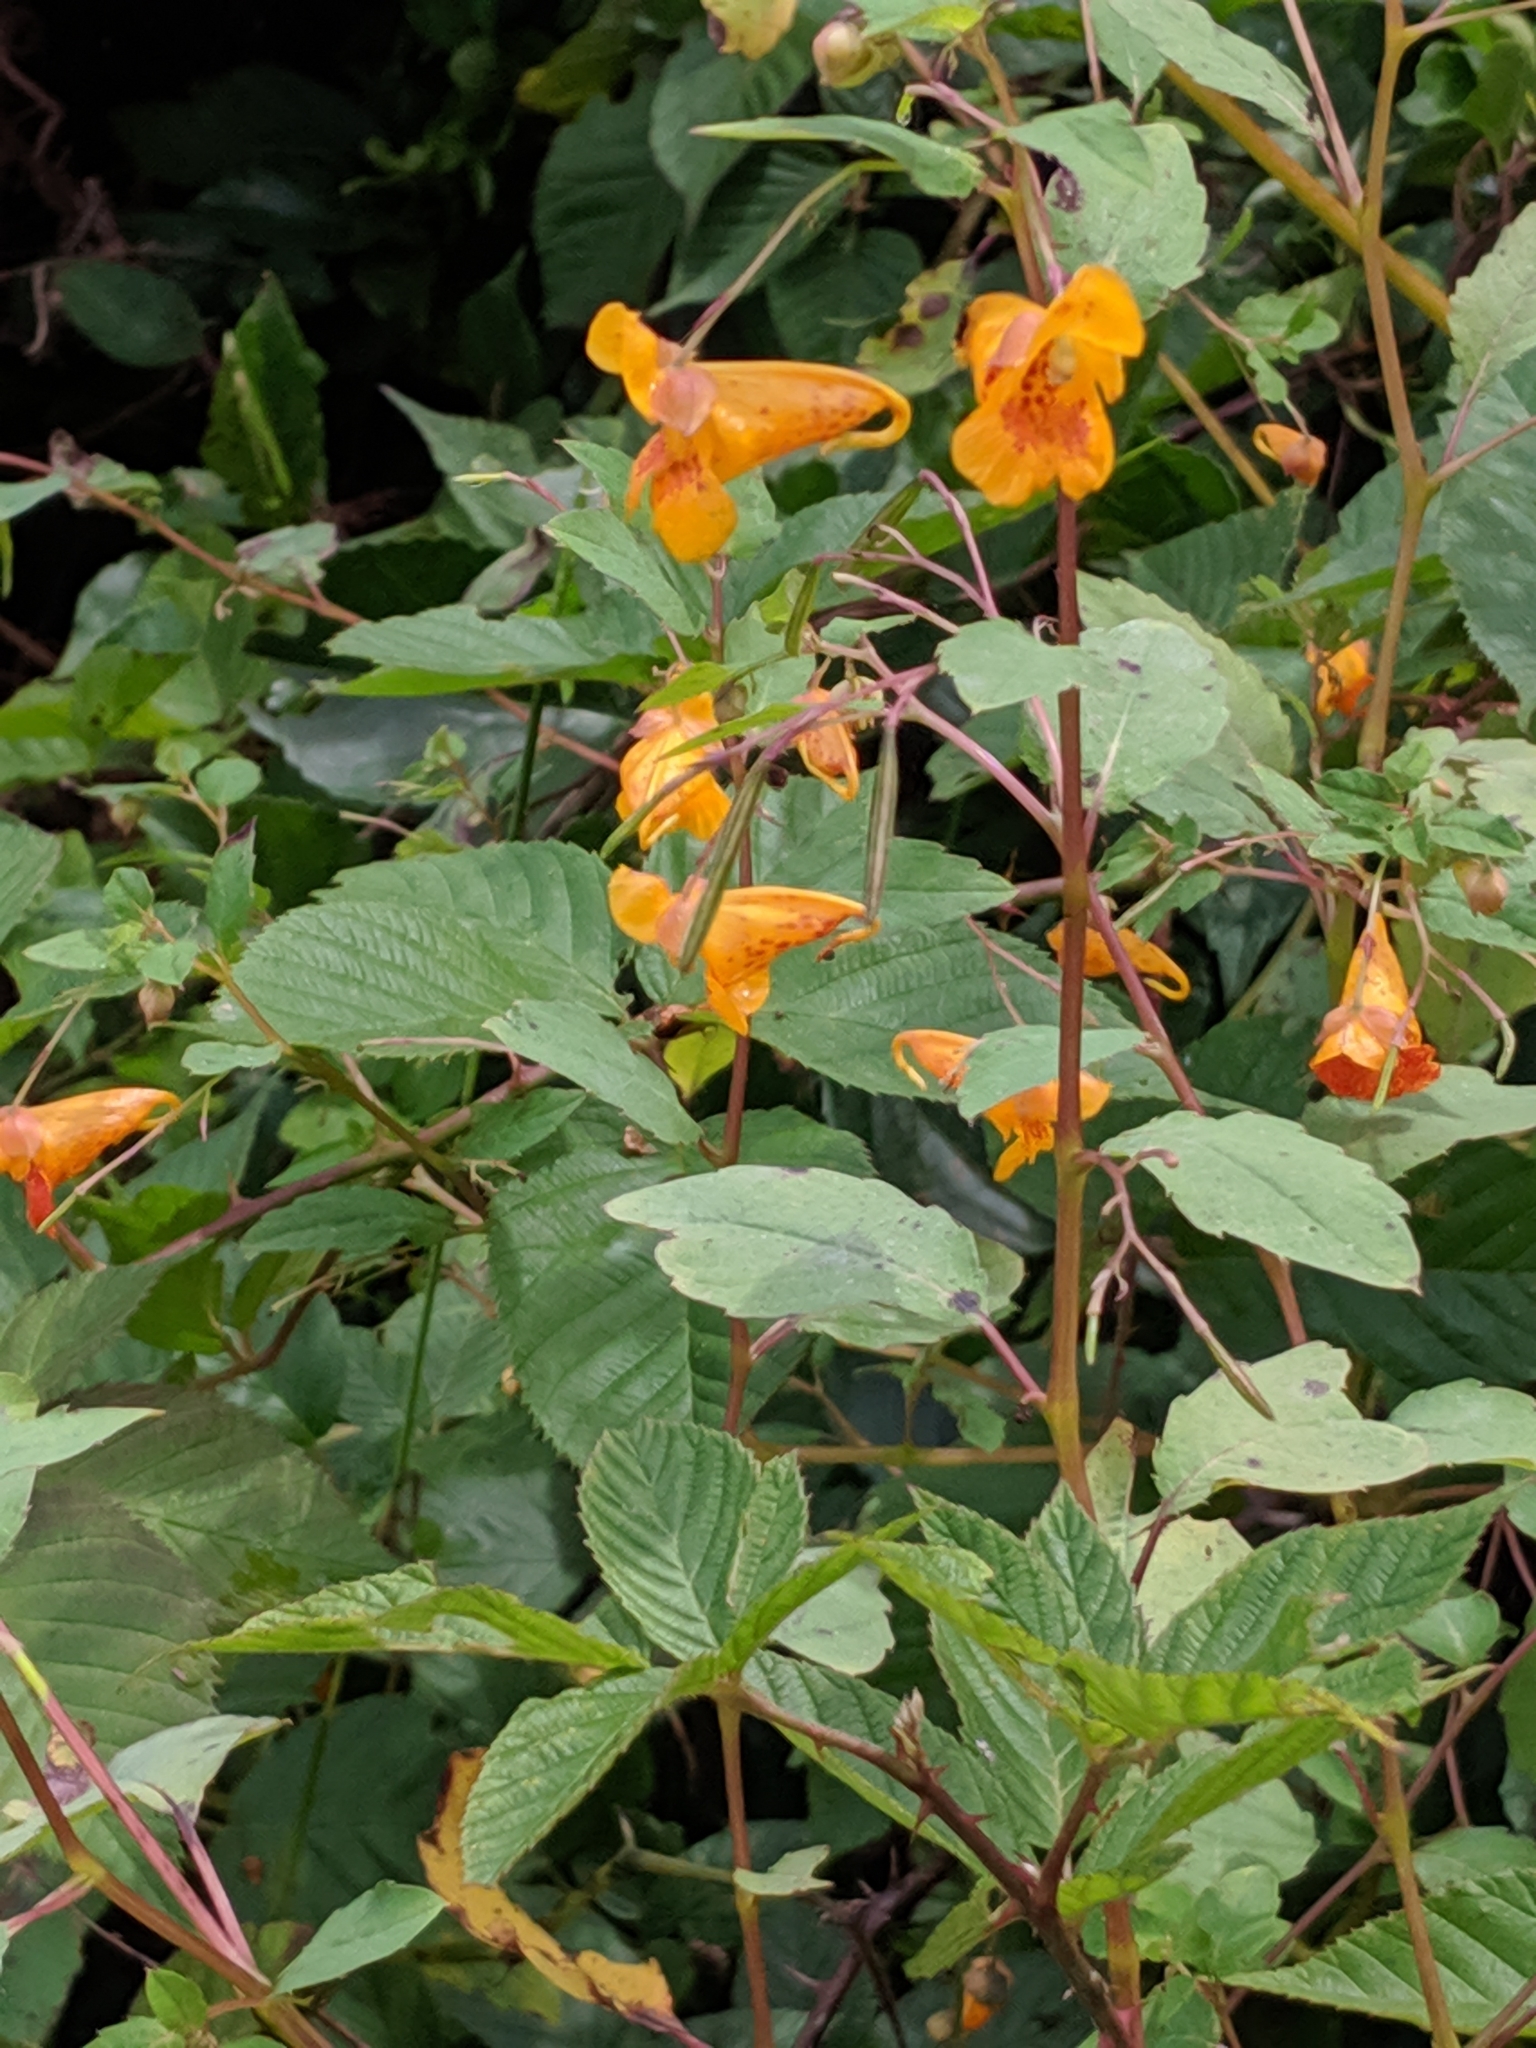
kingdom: Plantae
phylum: Tracheophyta
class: Magnoliopsida
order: Ericales
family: Balsaminaceae
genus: Impatiens
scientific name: Impatiens capensis
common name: Orange balsam
